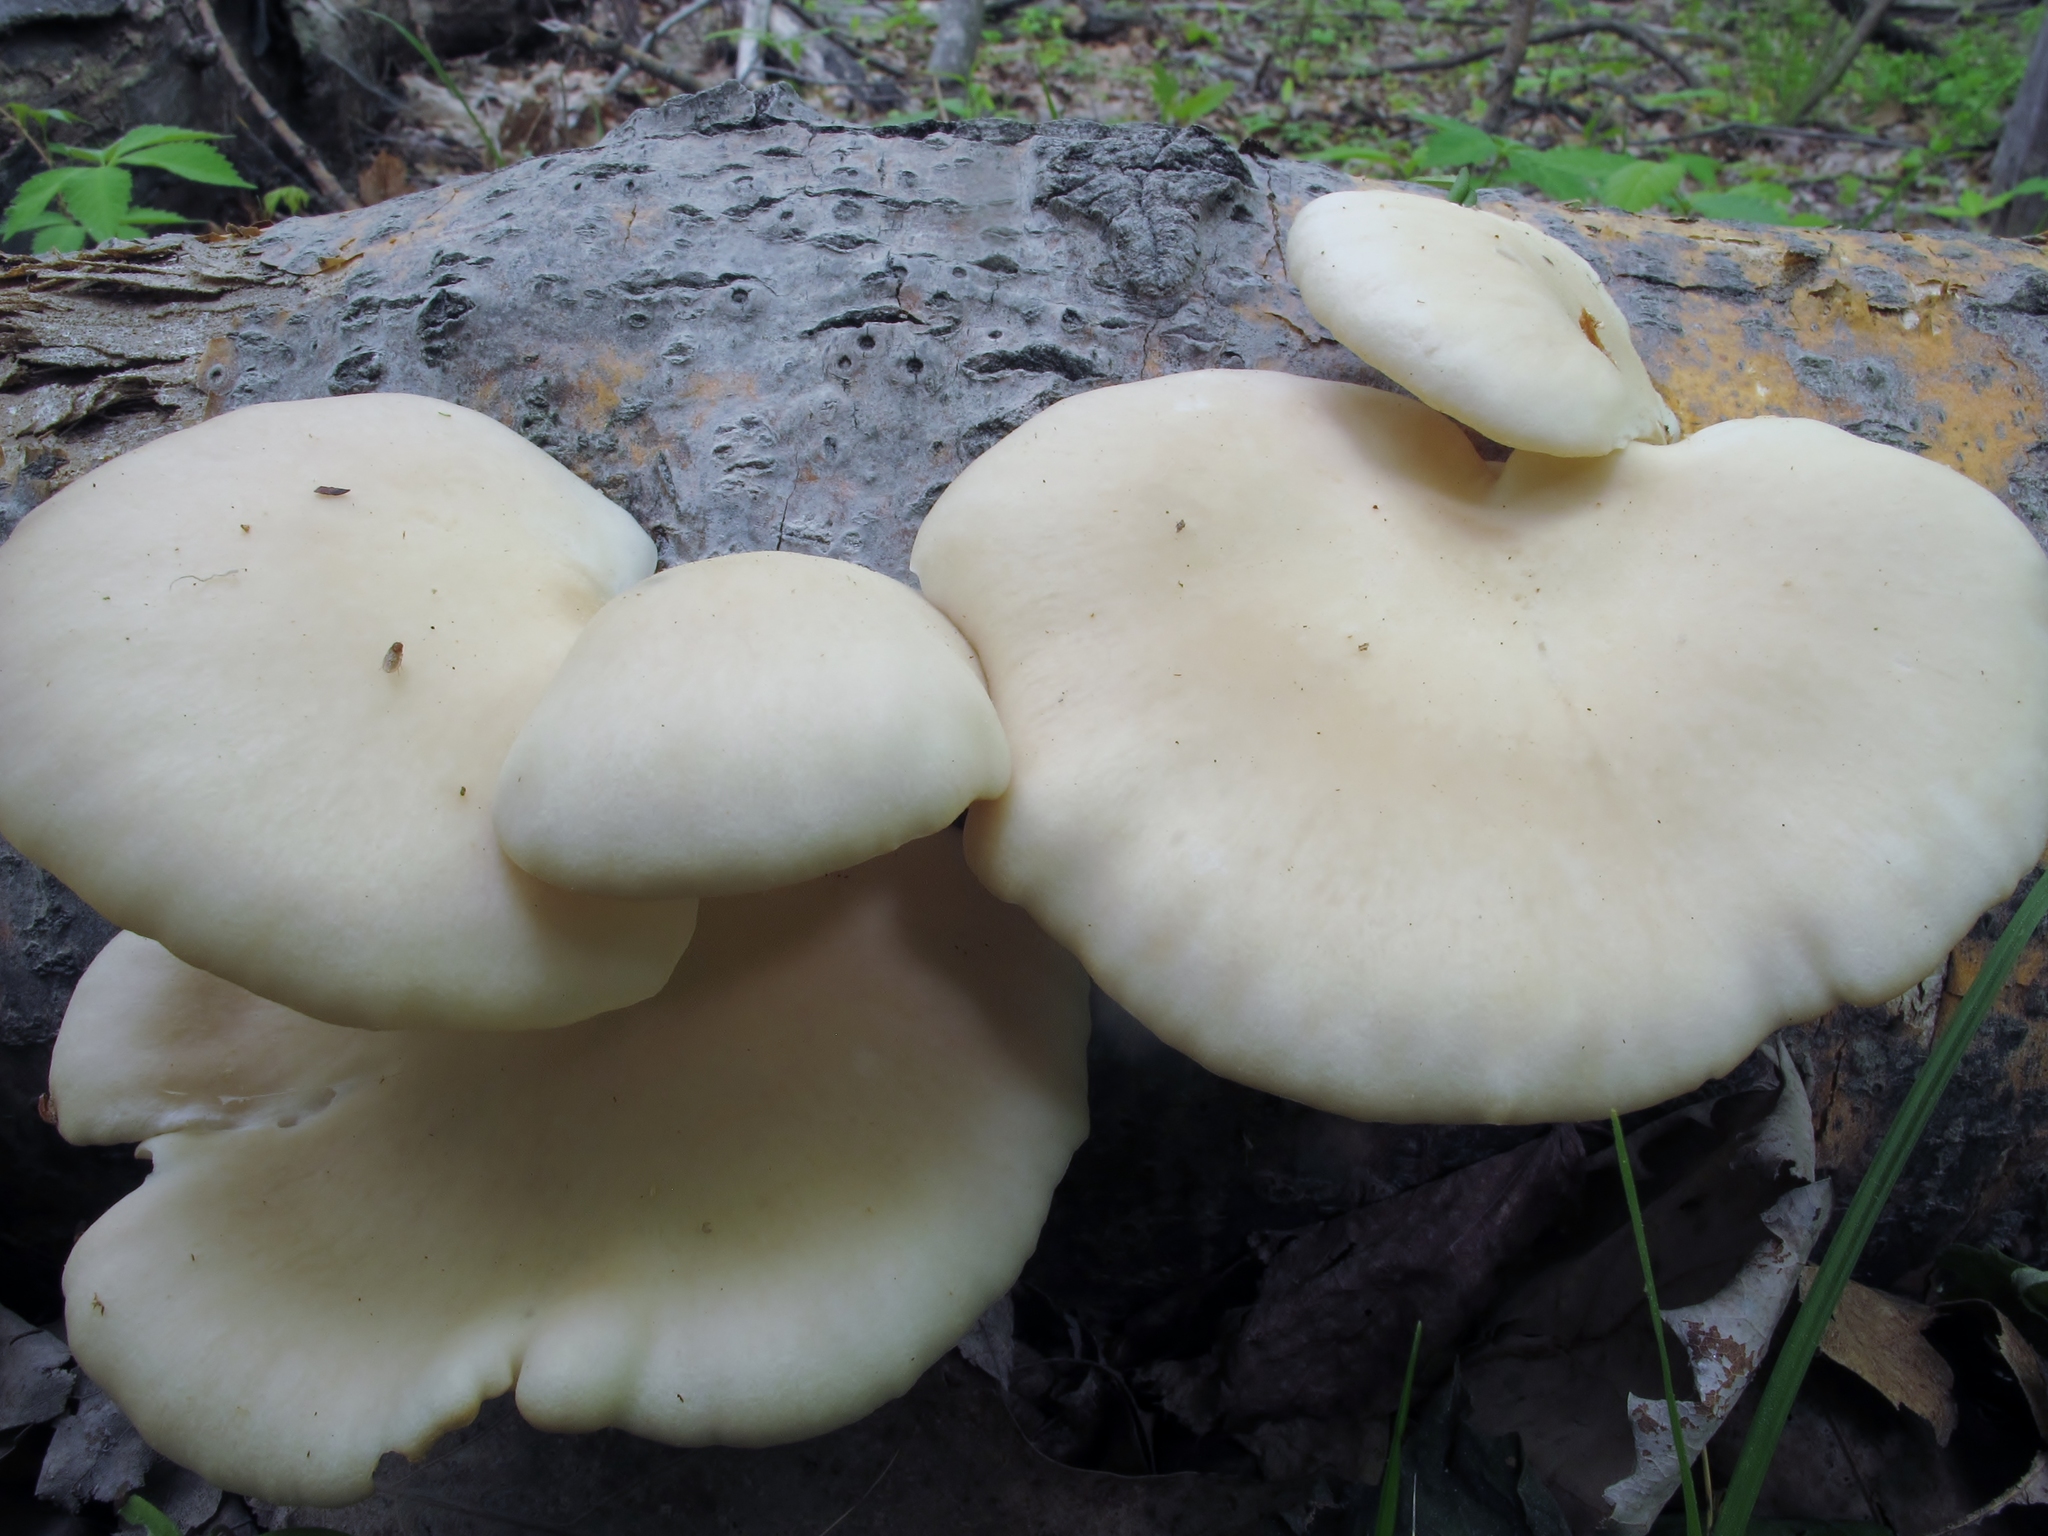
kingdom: Fungi
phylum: Basidiomycota
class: Agaricomycetes
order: Agaricales
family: Pleurotaceae
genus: Pleurotus
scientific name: Pleurotus populinus
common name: Aspen oyster mushroom
